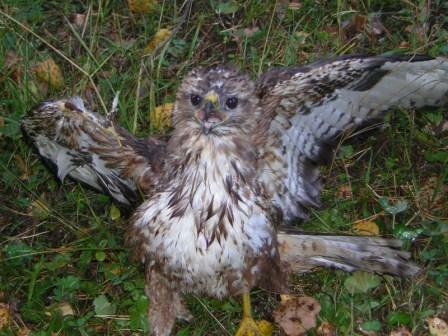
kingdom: Animalia
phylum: Chordata
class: Aves
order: Accipitriformes
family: Accipitridae
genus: Buteo
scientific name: Buteo buteo
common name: Common buzzard
